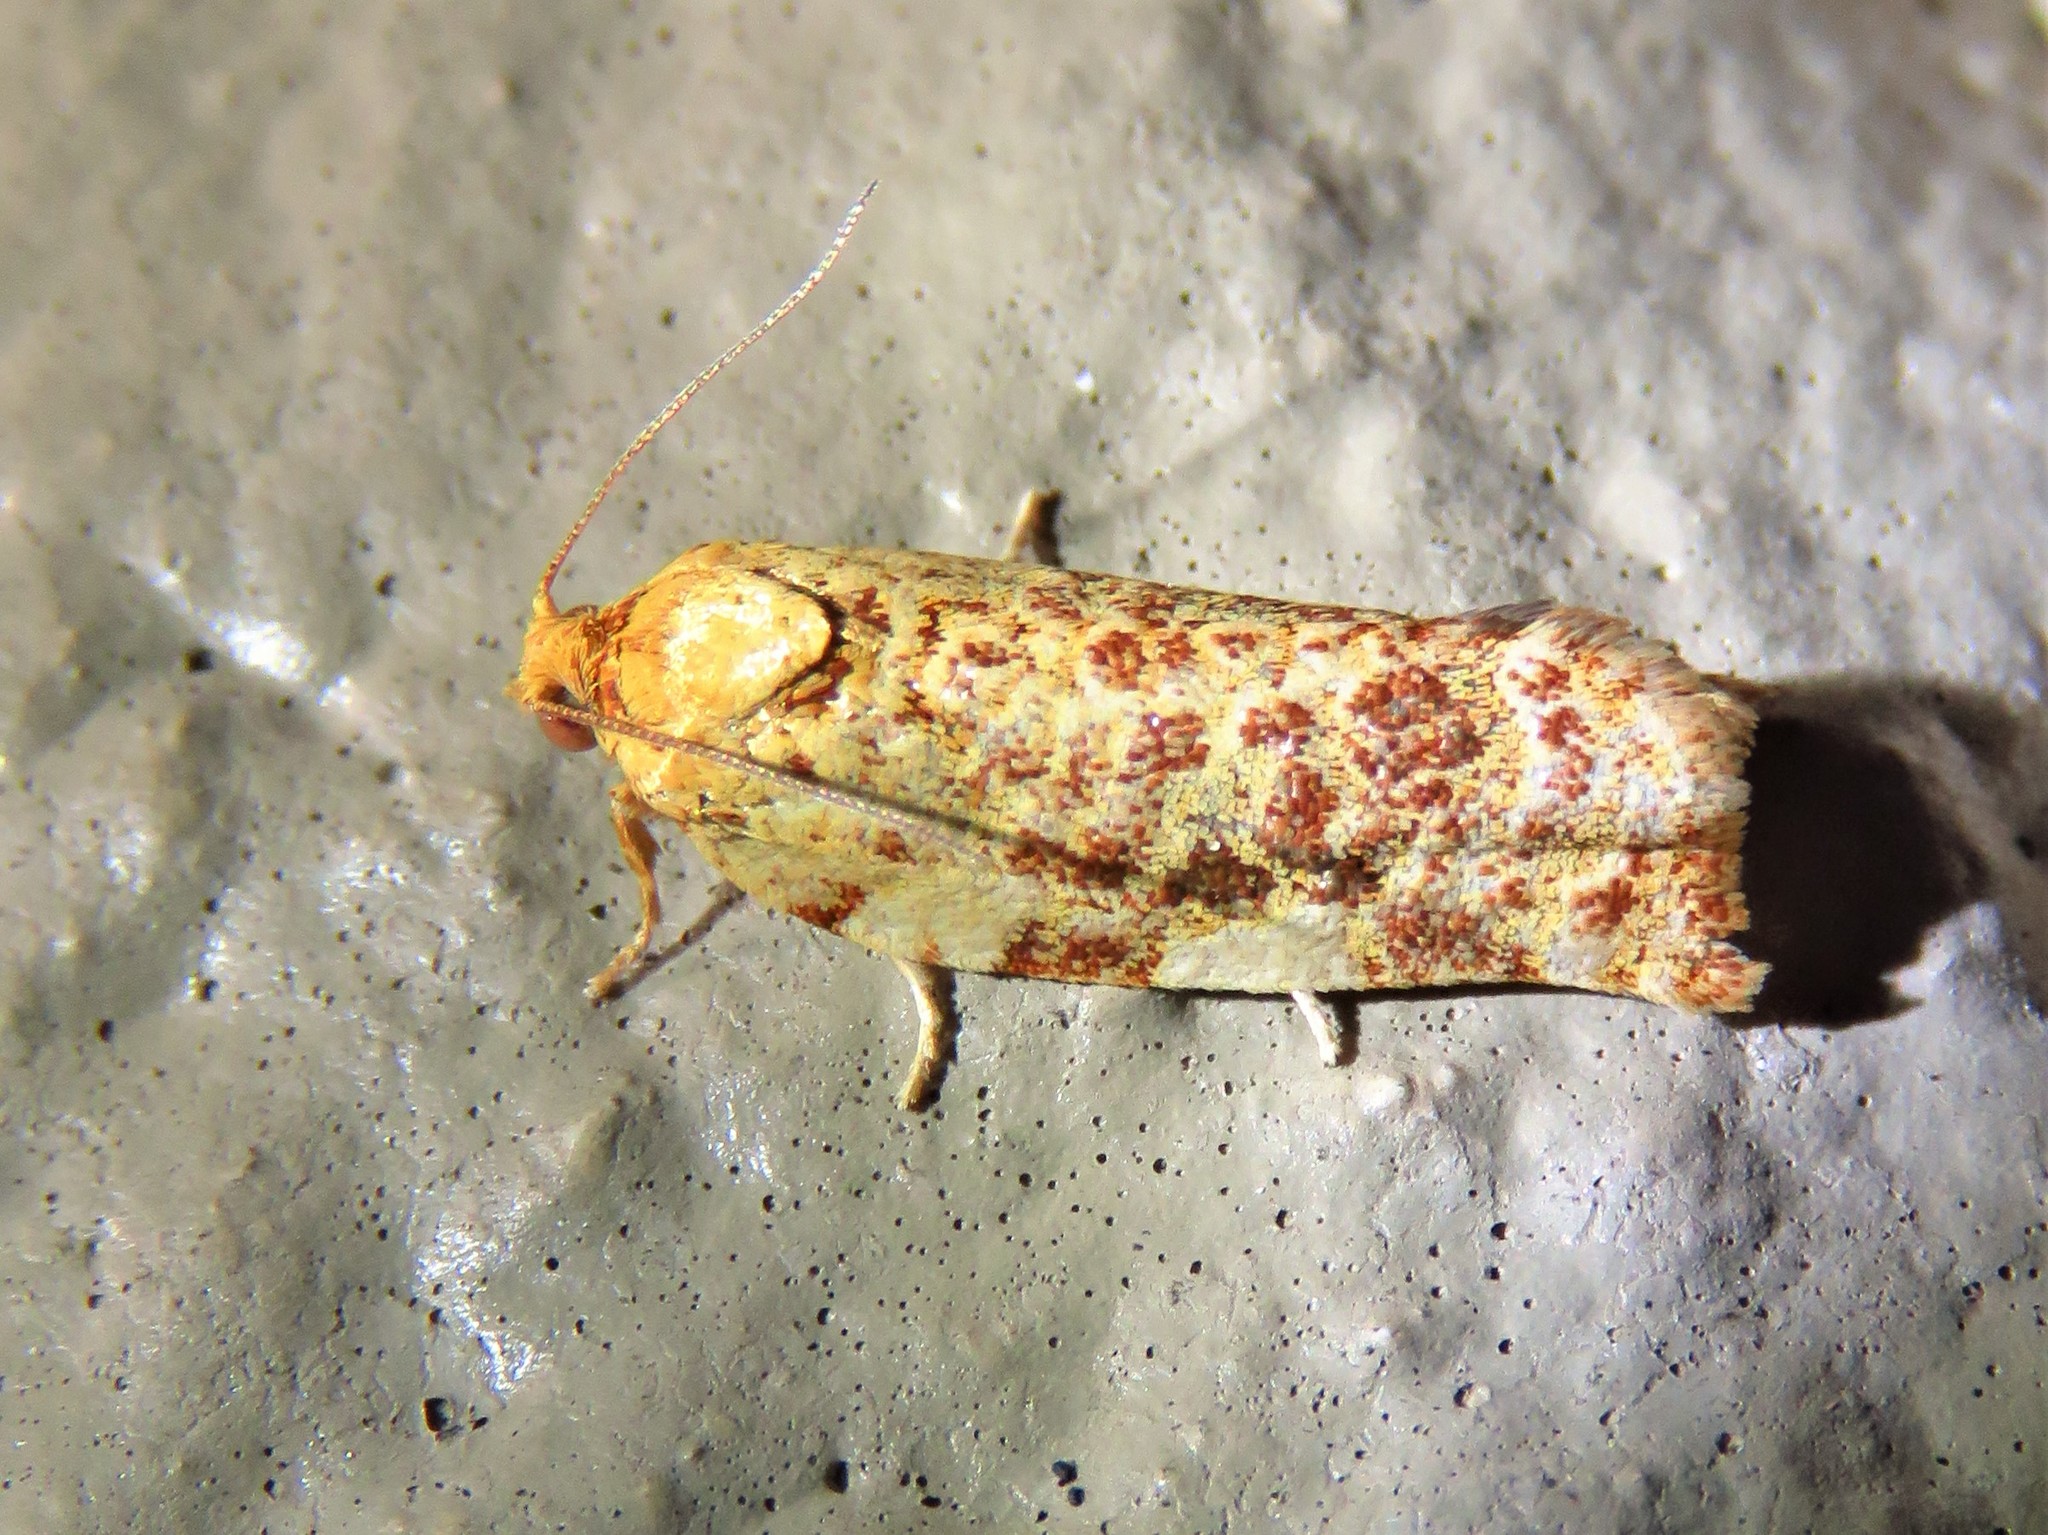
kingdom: Animalia
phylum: Arthropoda
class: Insecta
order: Lepidoptera
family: Tortricidae
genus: Archips
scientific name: Archips argyrospila
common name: Fruit-tree leafroller moth
